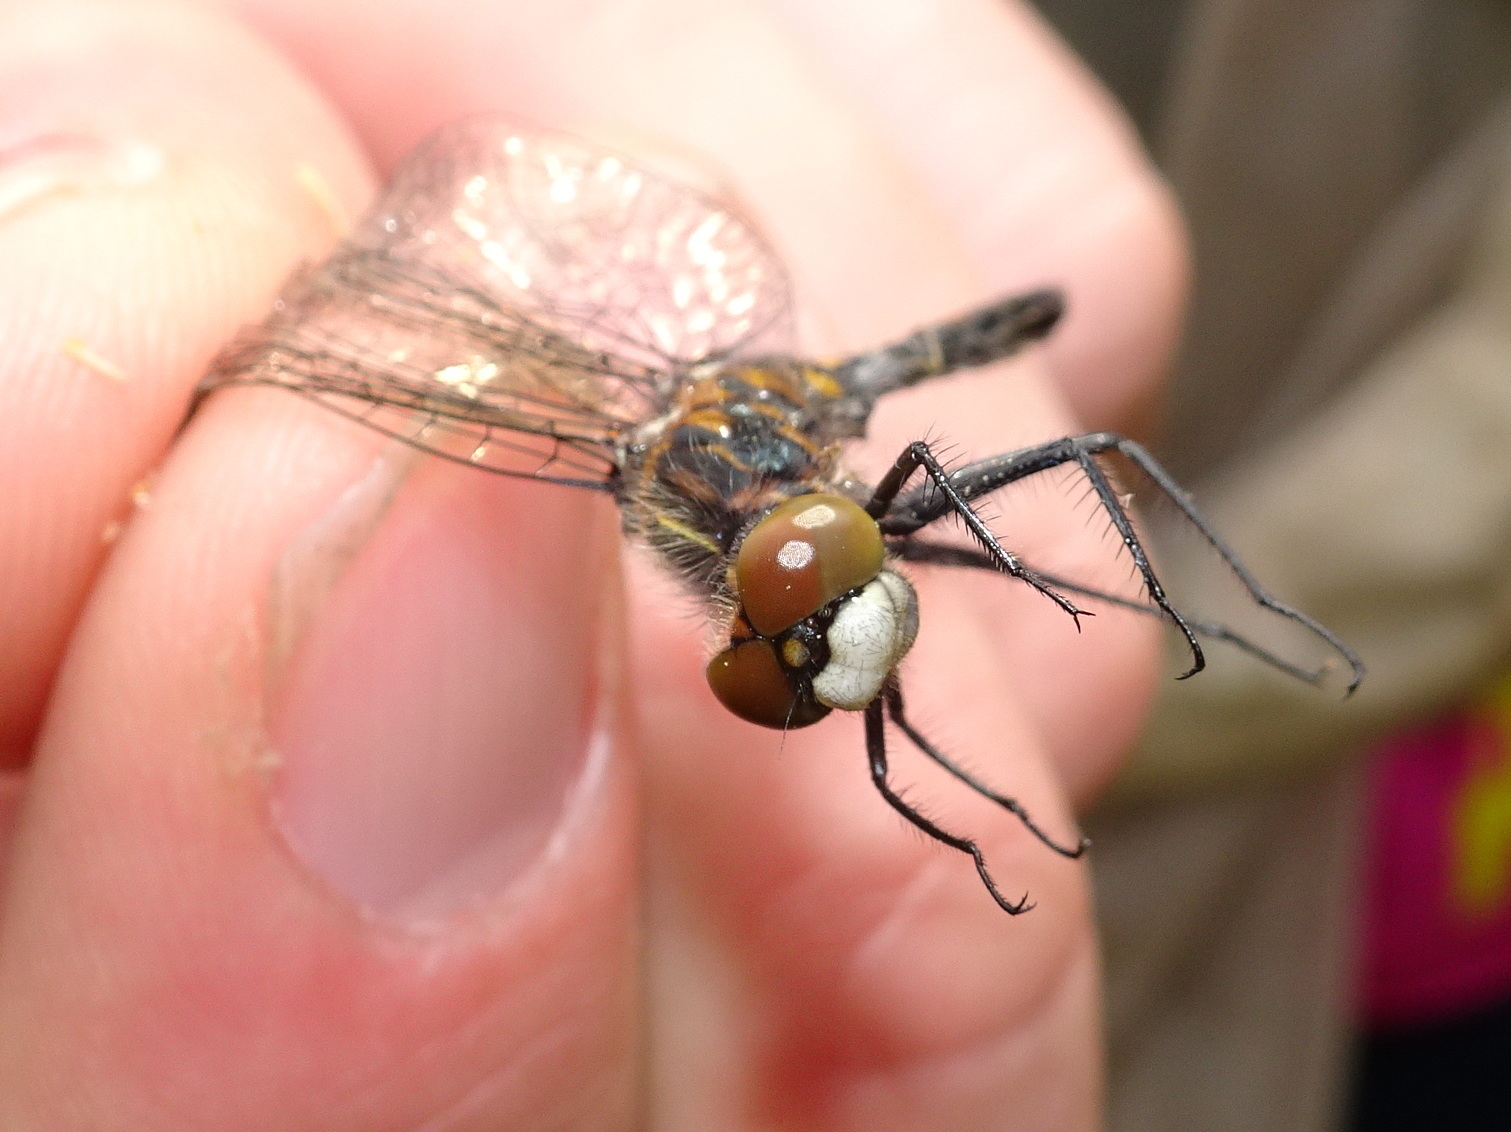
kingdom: Animalia
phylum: Arthropoda
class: Insecta
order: Odonata
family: Libellulidae
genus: Leucorrhinia
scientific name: Leucorrhinia intacta
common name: Dot-tailed whiteface
